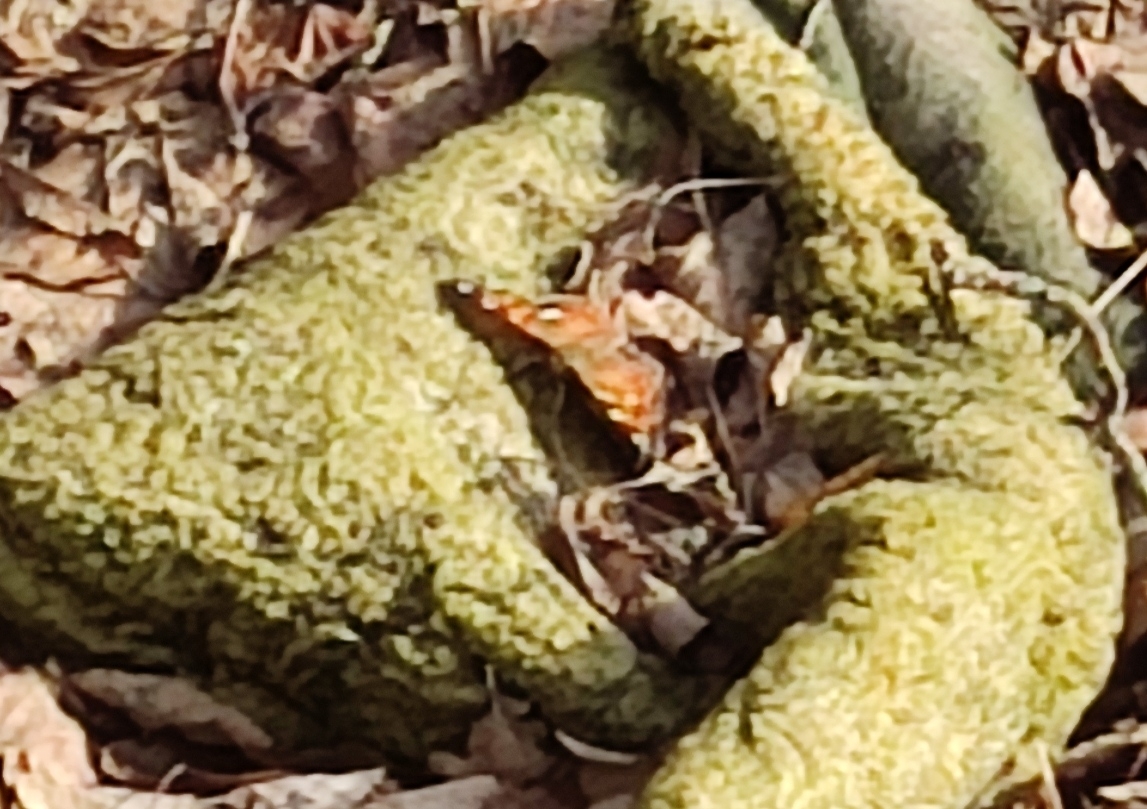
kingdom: Animalia
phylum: Arthropoda
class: Insecta
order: Lepidoptera
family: Nymphalidae
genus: Polygonia
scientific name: Polygonia vaualbum
